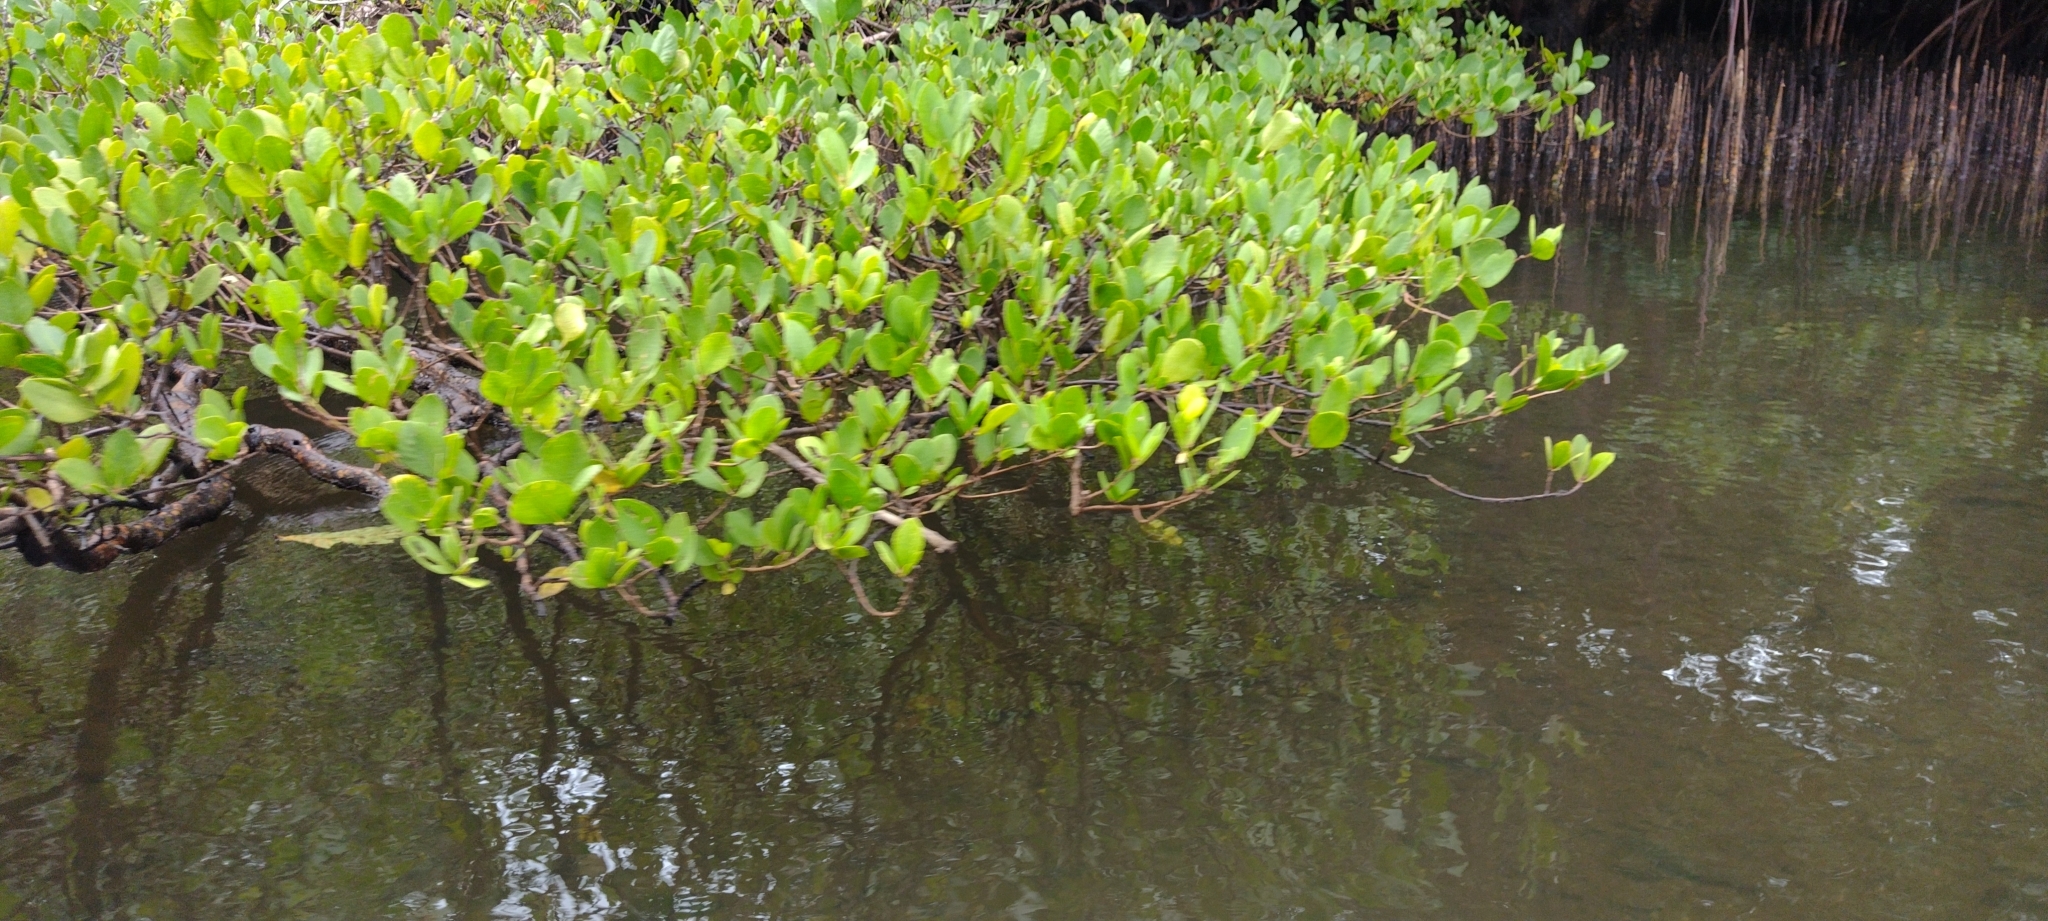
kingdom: Plantae
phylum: Tracheophyta
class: Magnoliopsida
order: Myrtales
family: Lythraceae
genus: Sonneratia
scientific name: Sonneratia alba
